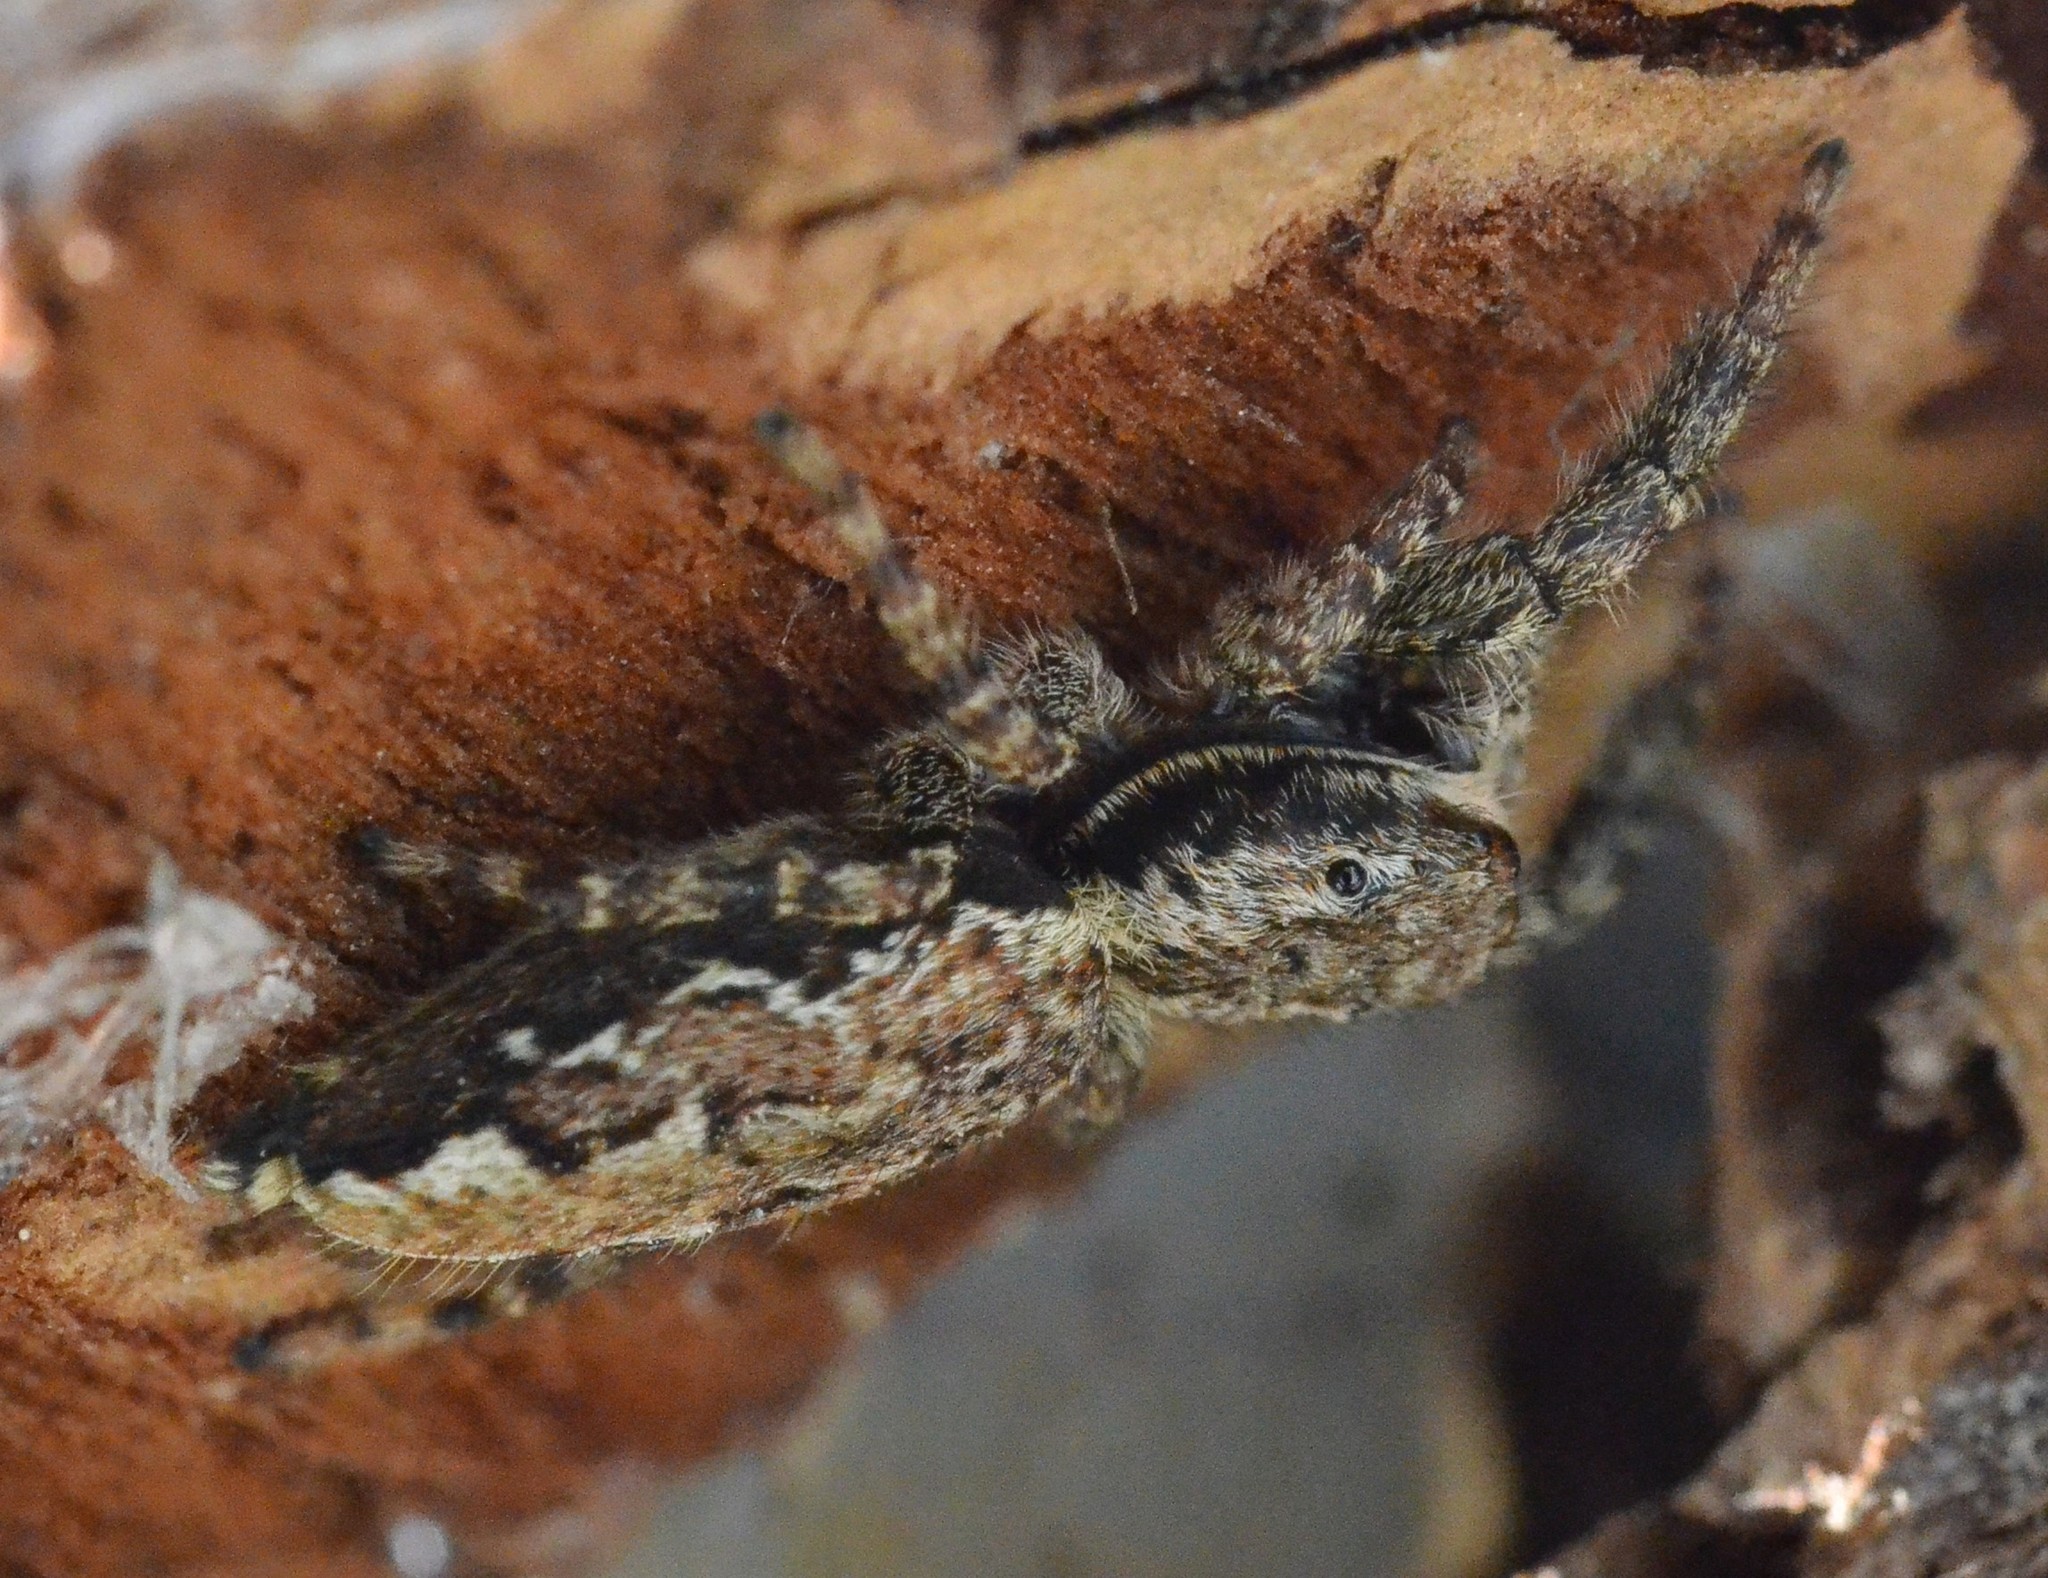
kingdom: Animalia
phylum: Arthropoda
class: Arachnida
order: Araneae
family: Salticidae
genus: Marpissa
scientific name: Marpissa muscosa
